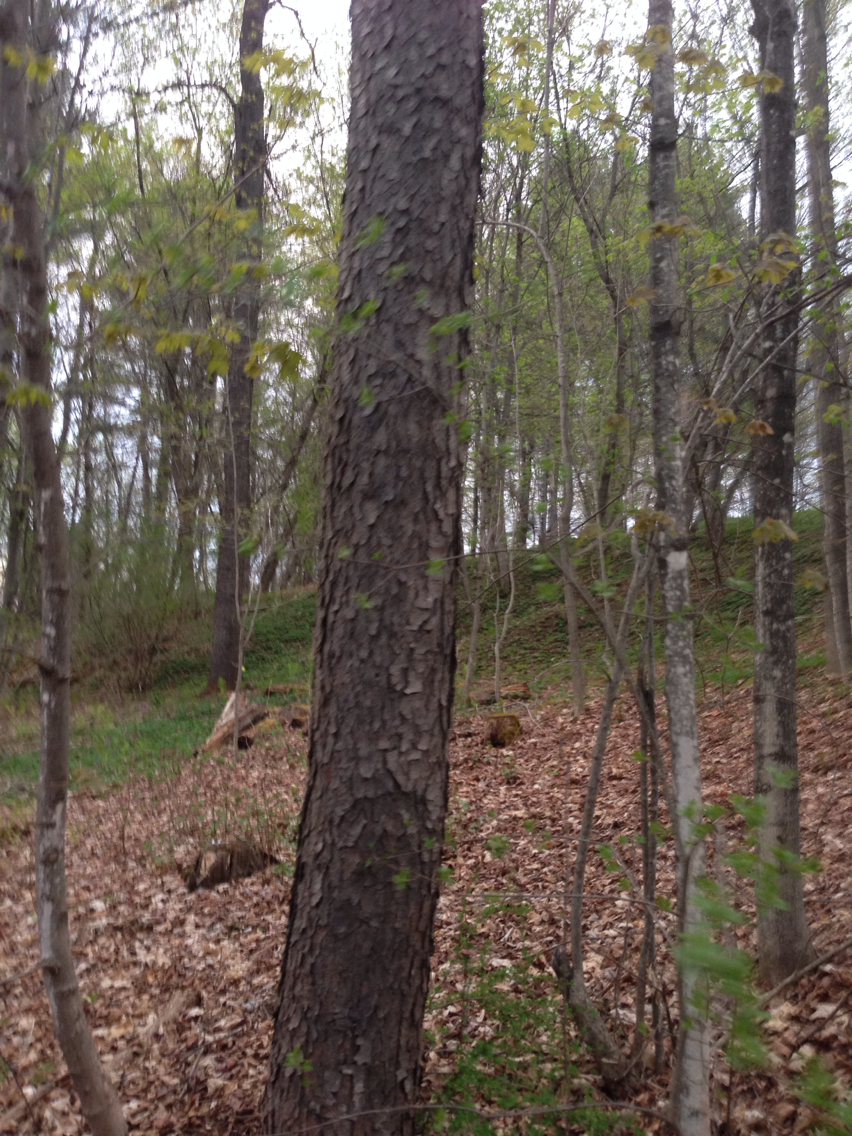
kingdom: Plantae
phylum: Tracheophyta
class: Magnoliopsida
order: Rosales
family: Rosaceae
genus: Prunus
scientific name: Prunus serotina
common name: Black cherry
